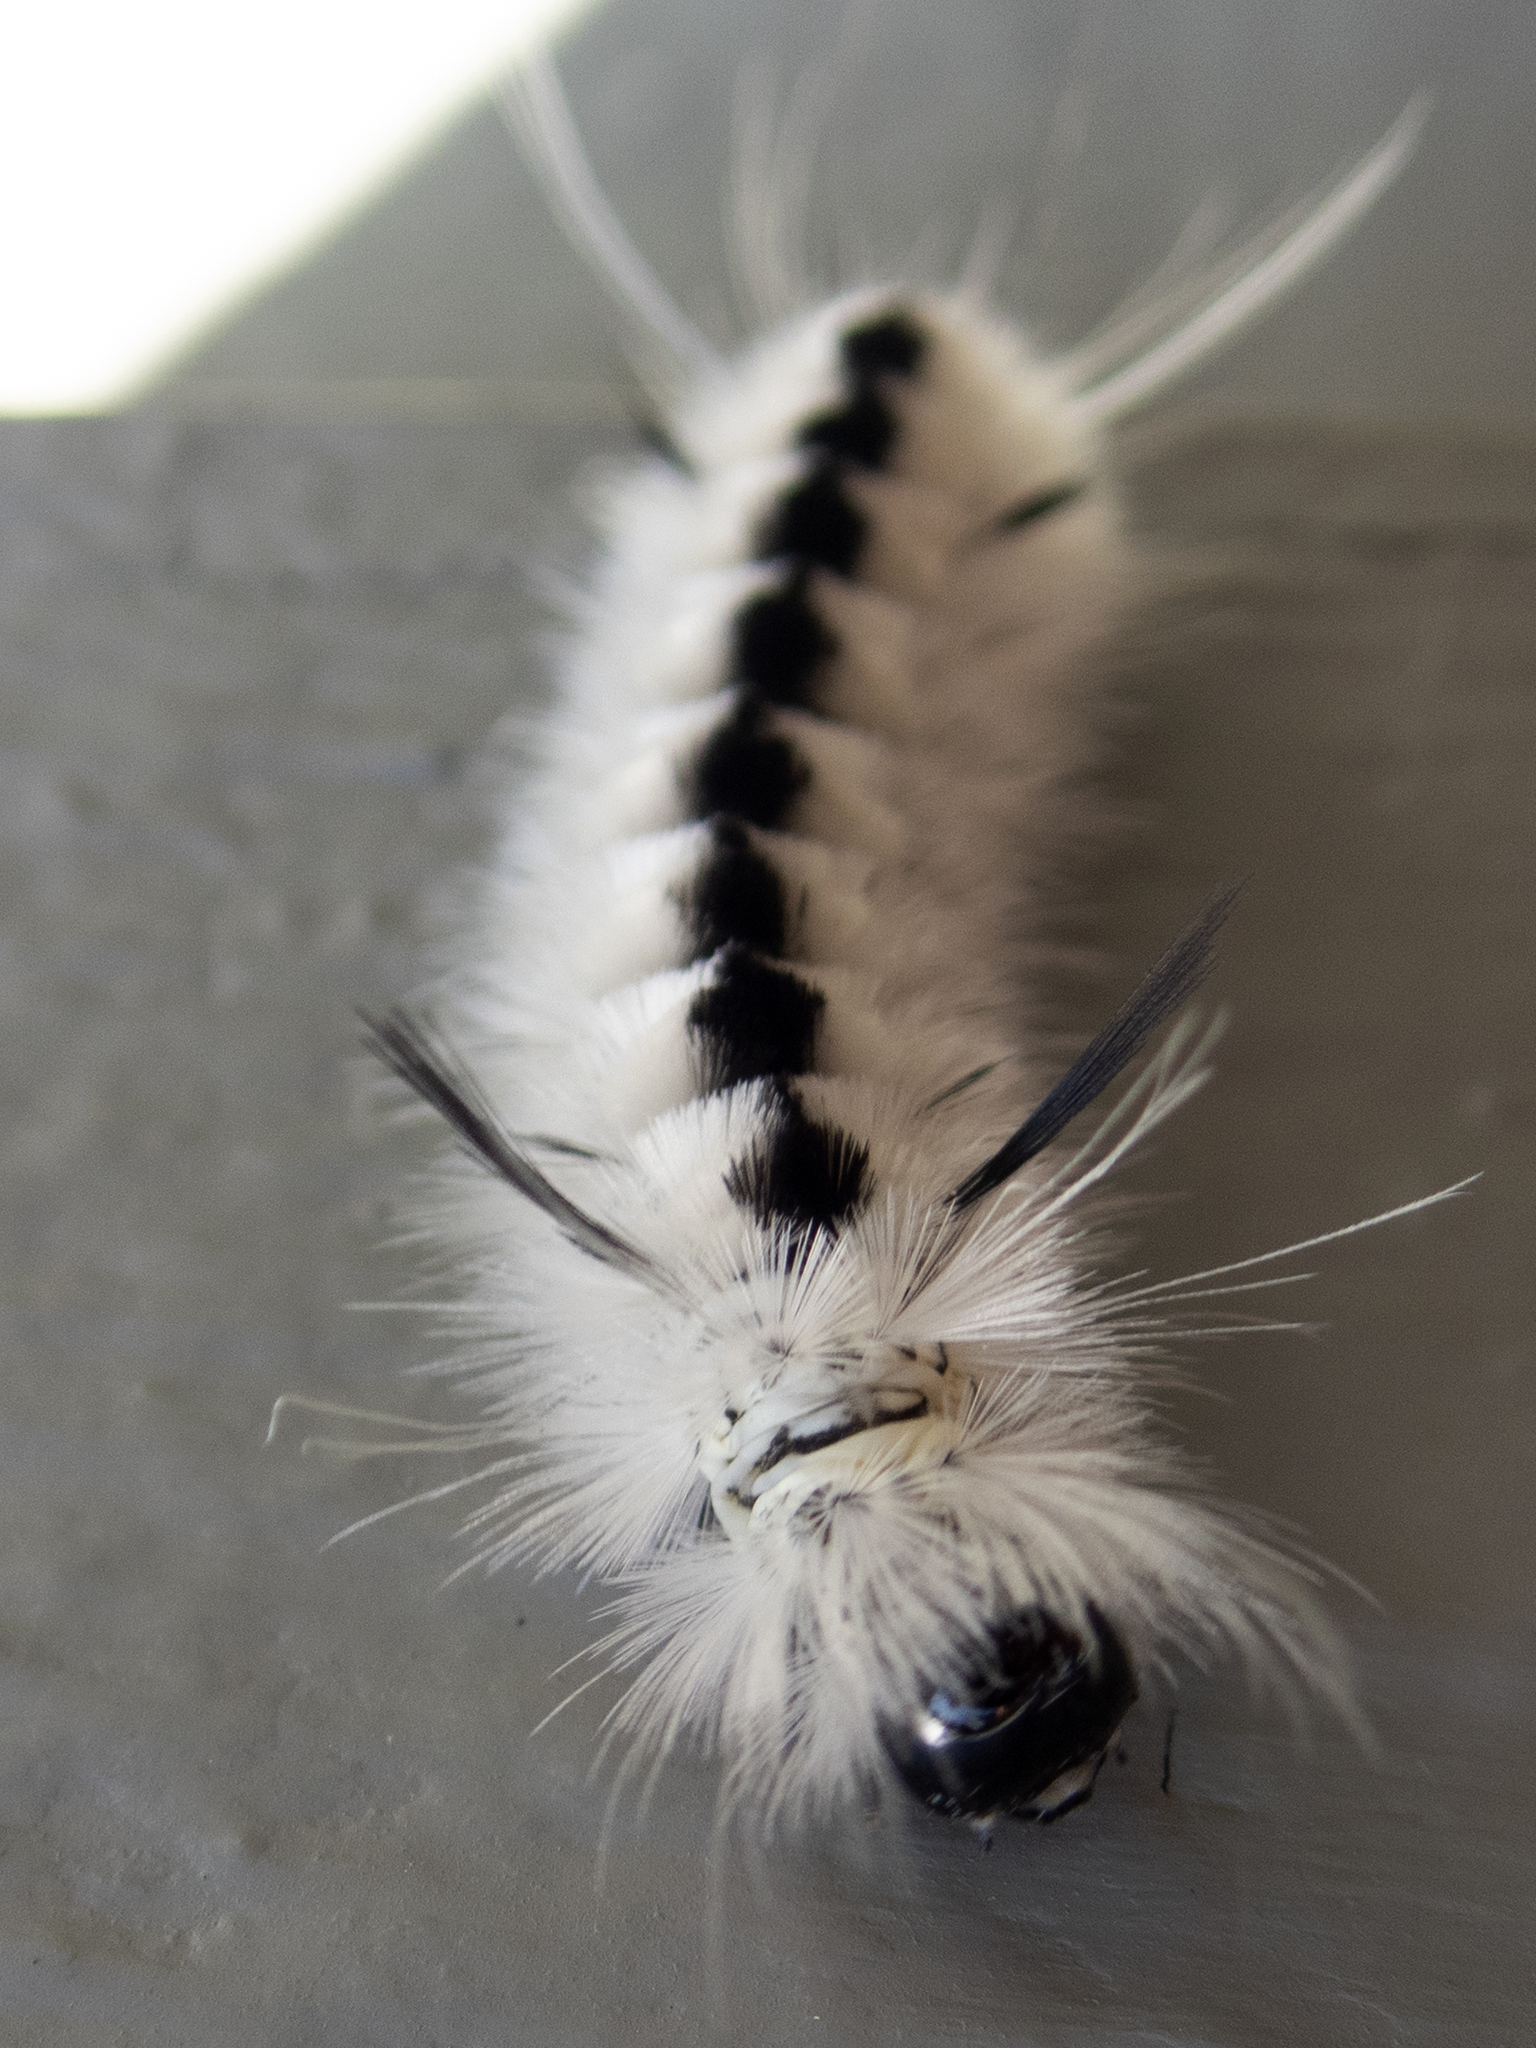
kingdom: Animalia
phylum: Arthropoda
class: Insecta
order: Lepidoptera
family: Erebidae
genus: Lophocampa
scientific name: Lophocampa caryae
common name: Hickory tussock moth
